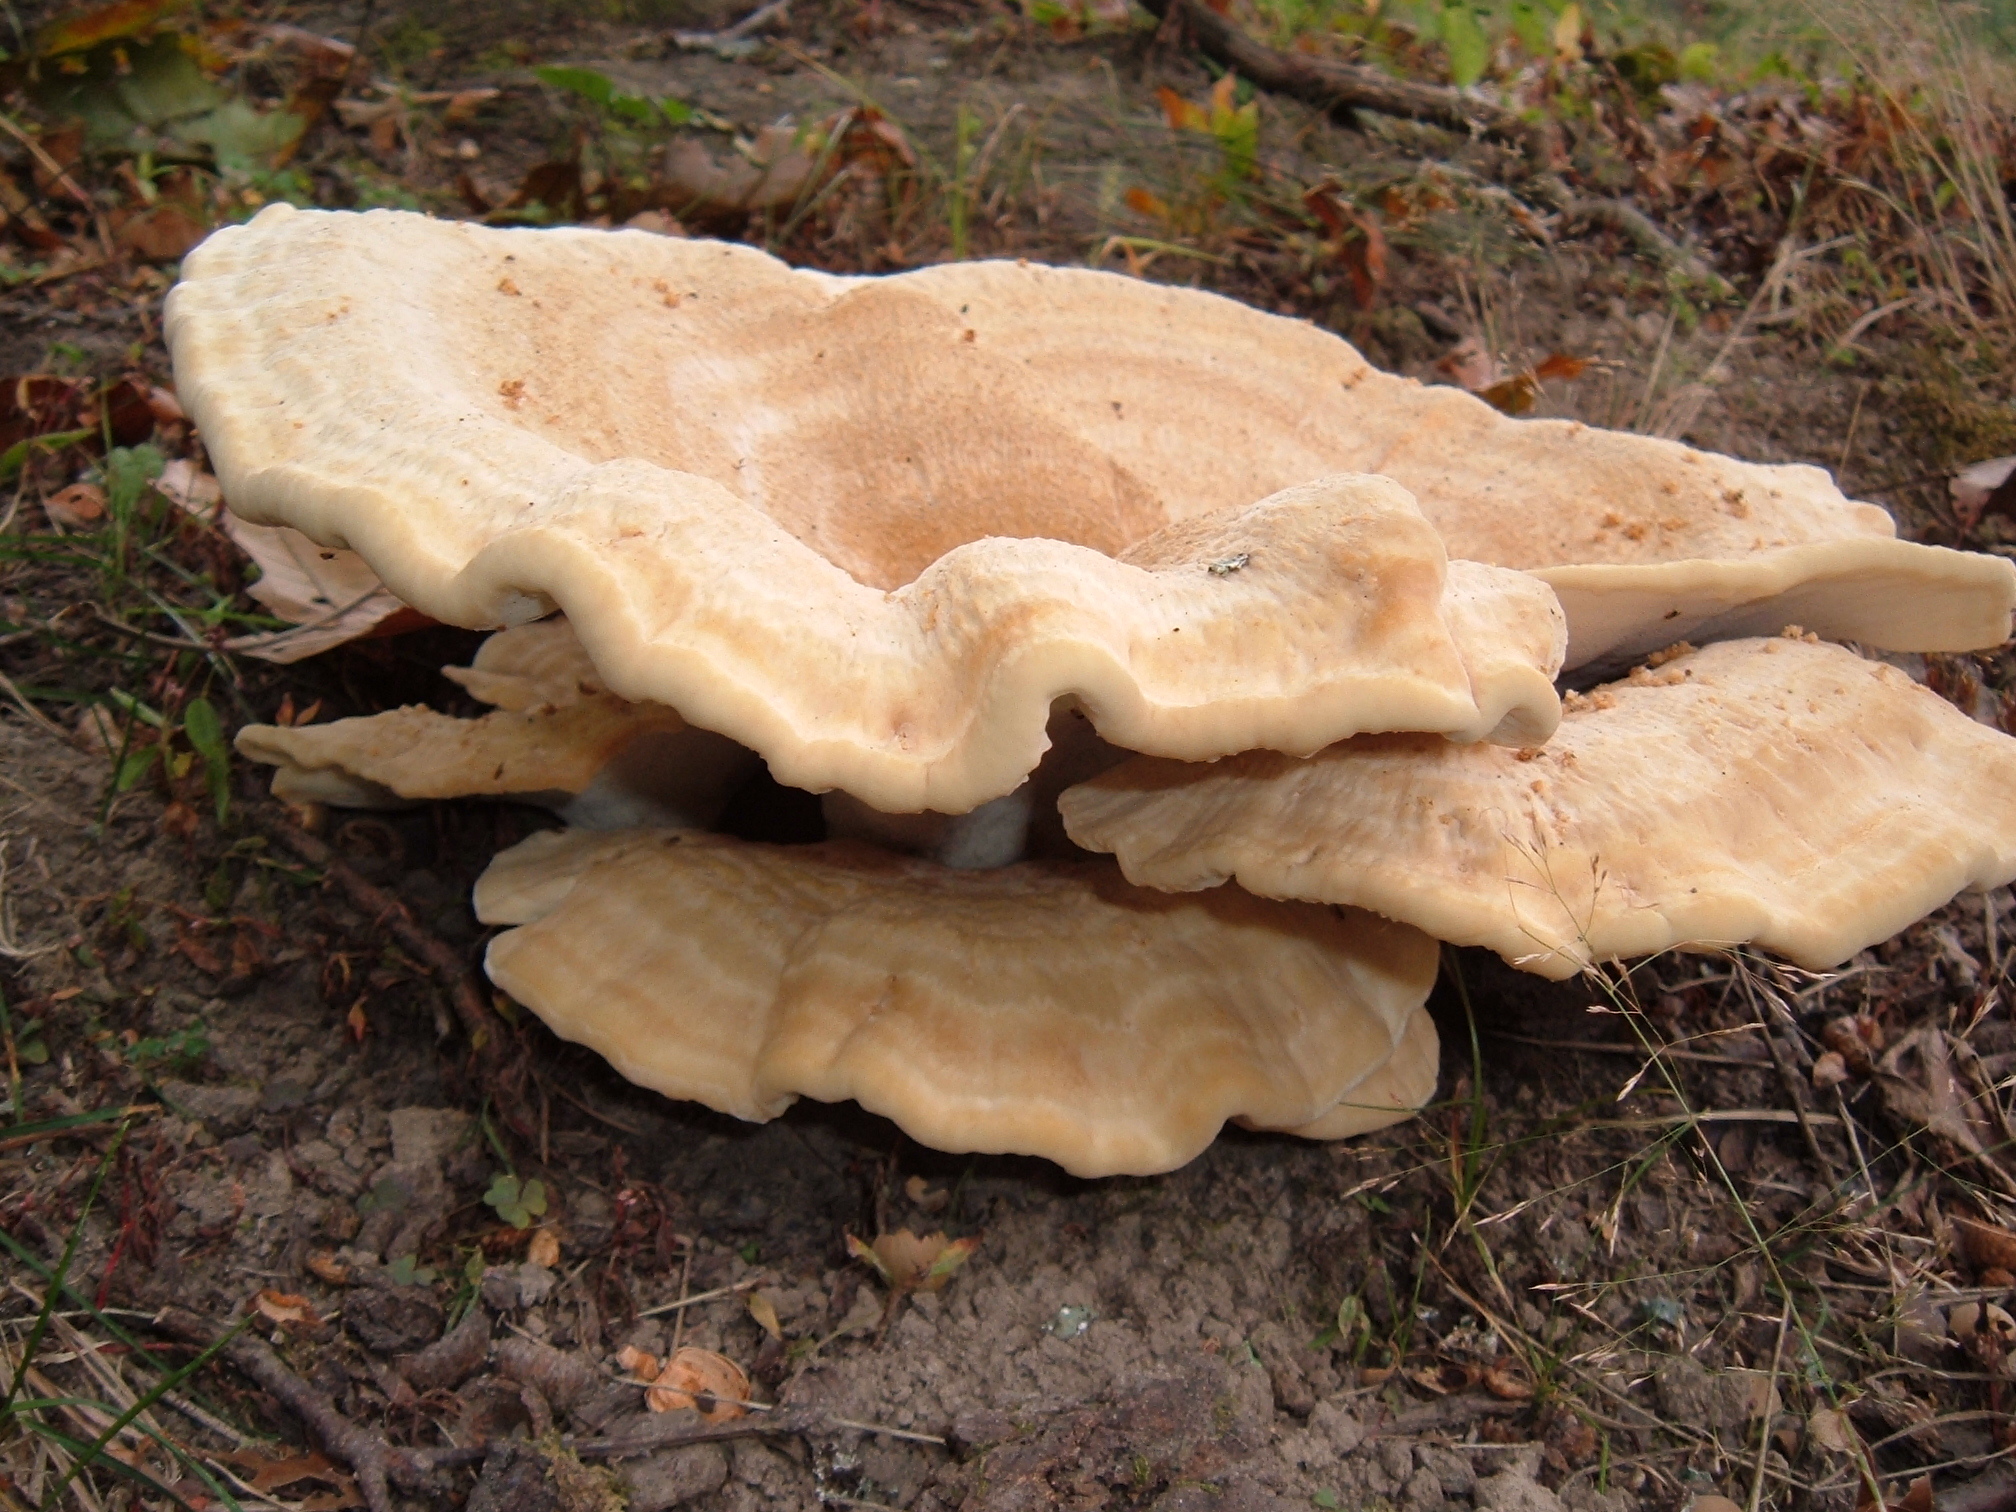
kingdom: Fungi
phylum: Basidiomycota
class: Agaricomycetes
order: Russulales
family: Bondarzewiaceae
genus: Bondarzewia
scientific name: Bondarzewia berkeleyi
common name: Berkeley's polypore
